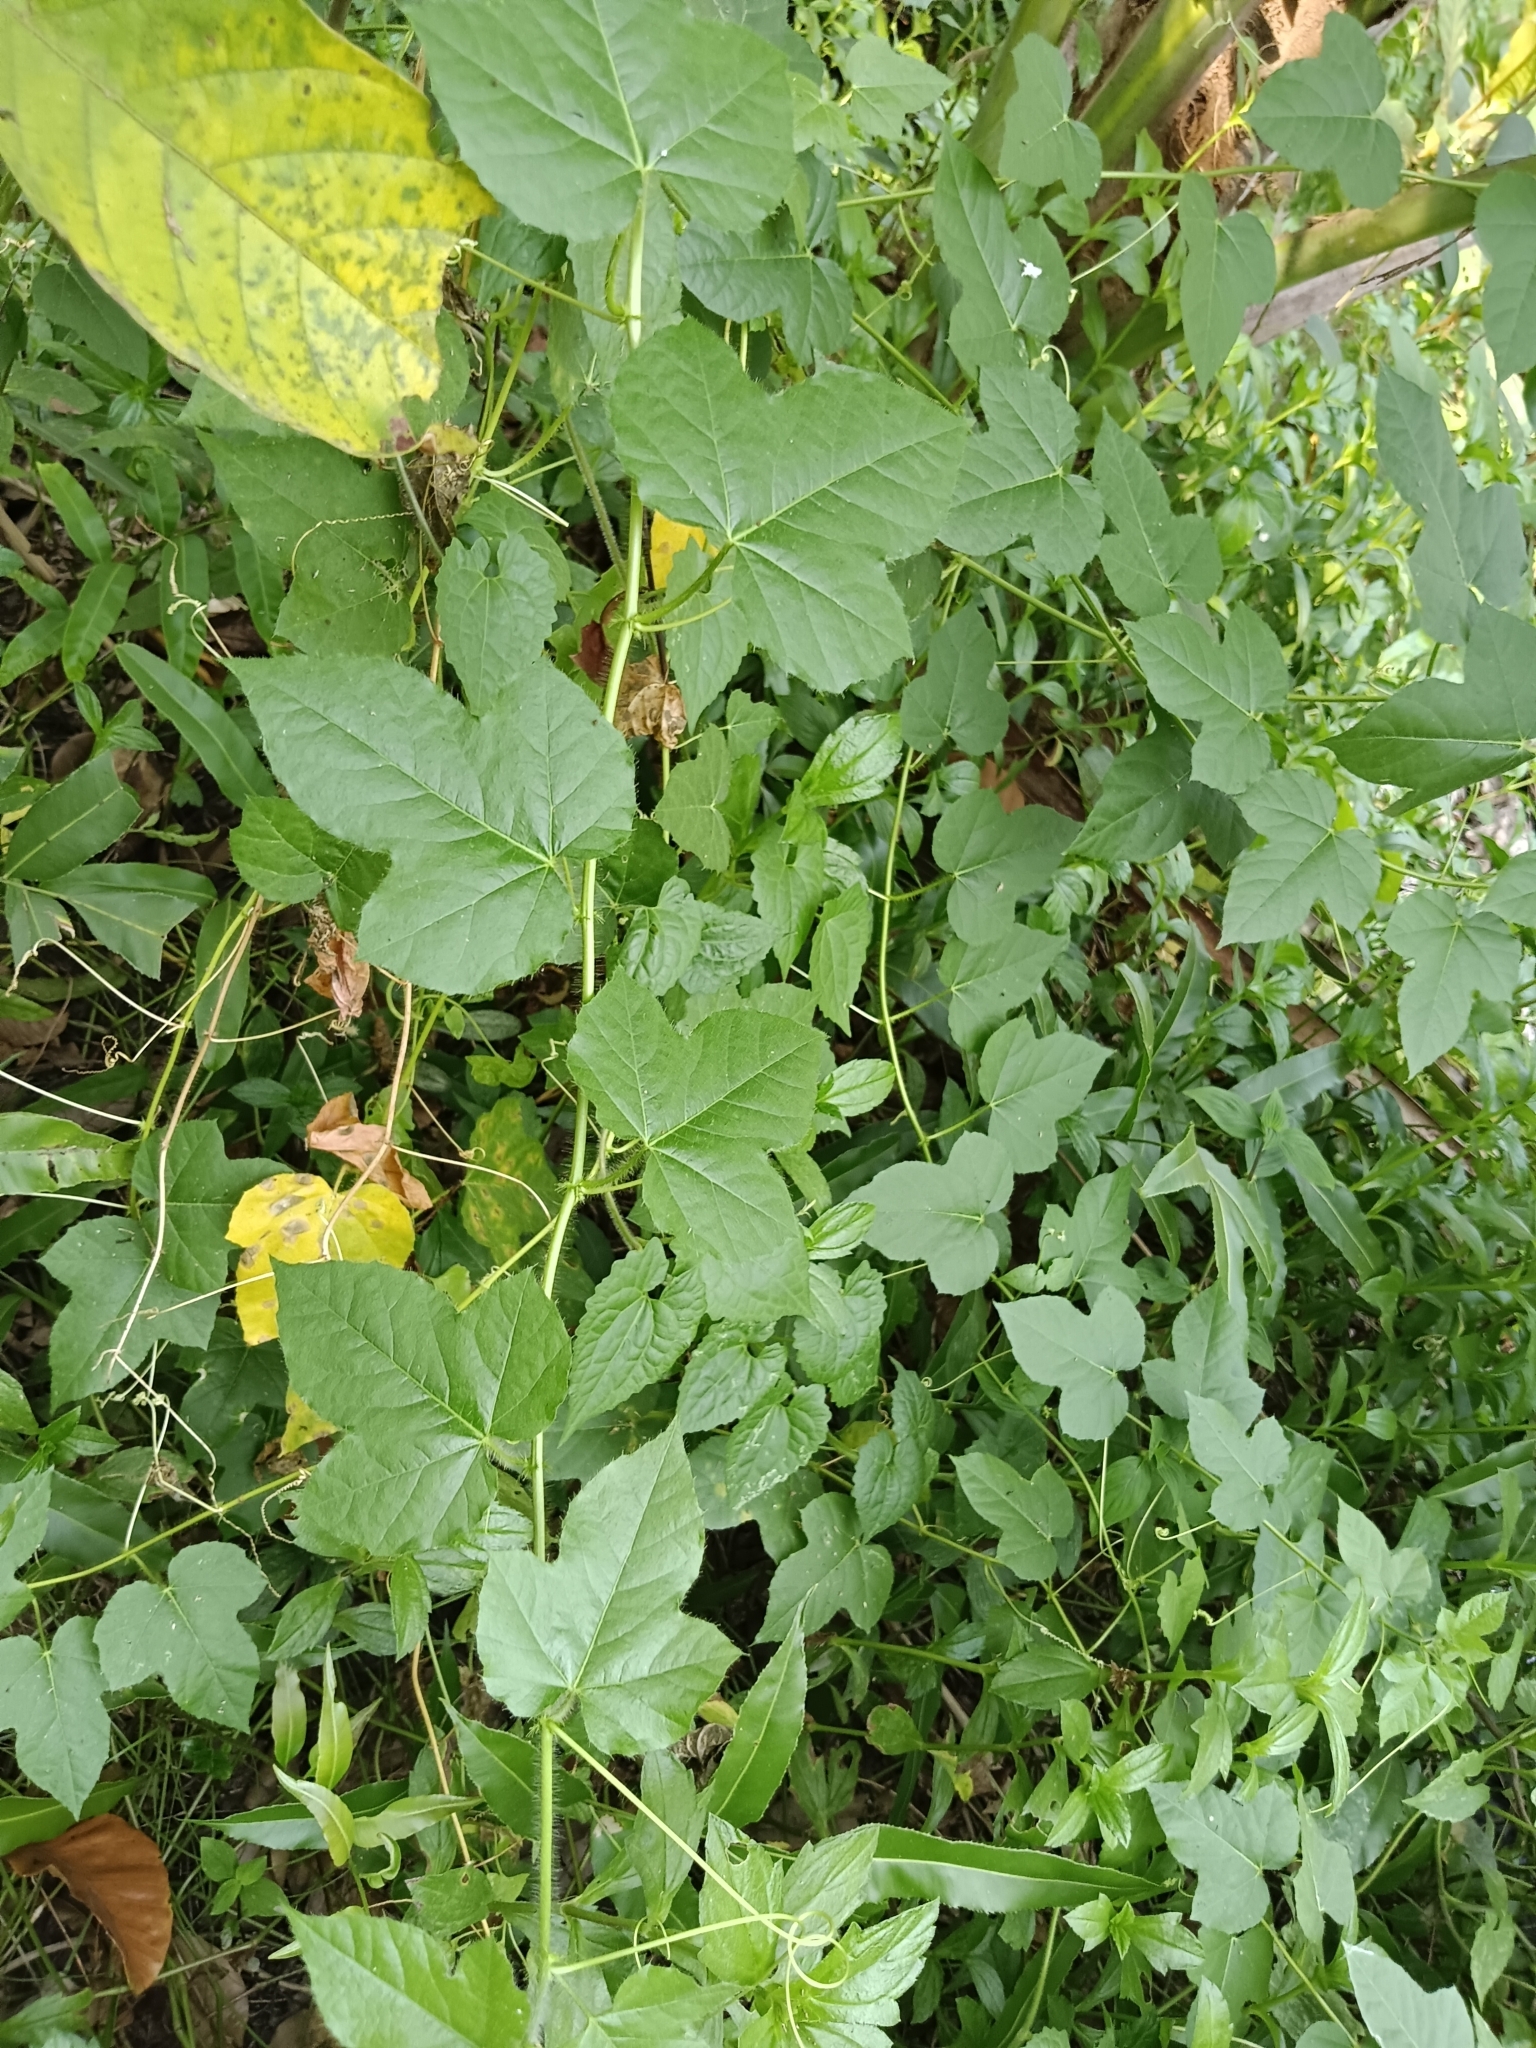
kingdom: Plantae
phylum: Tracheophyta
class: Magnoliopsida
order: Malpighiales
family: Passifloraceae
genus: Passiflora
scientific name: Passiflora vesicaria
